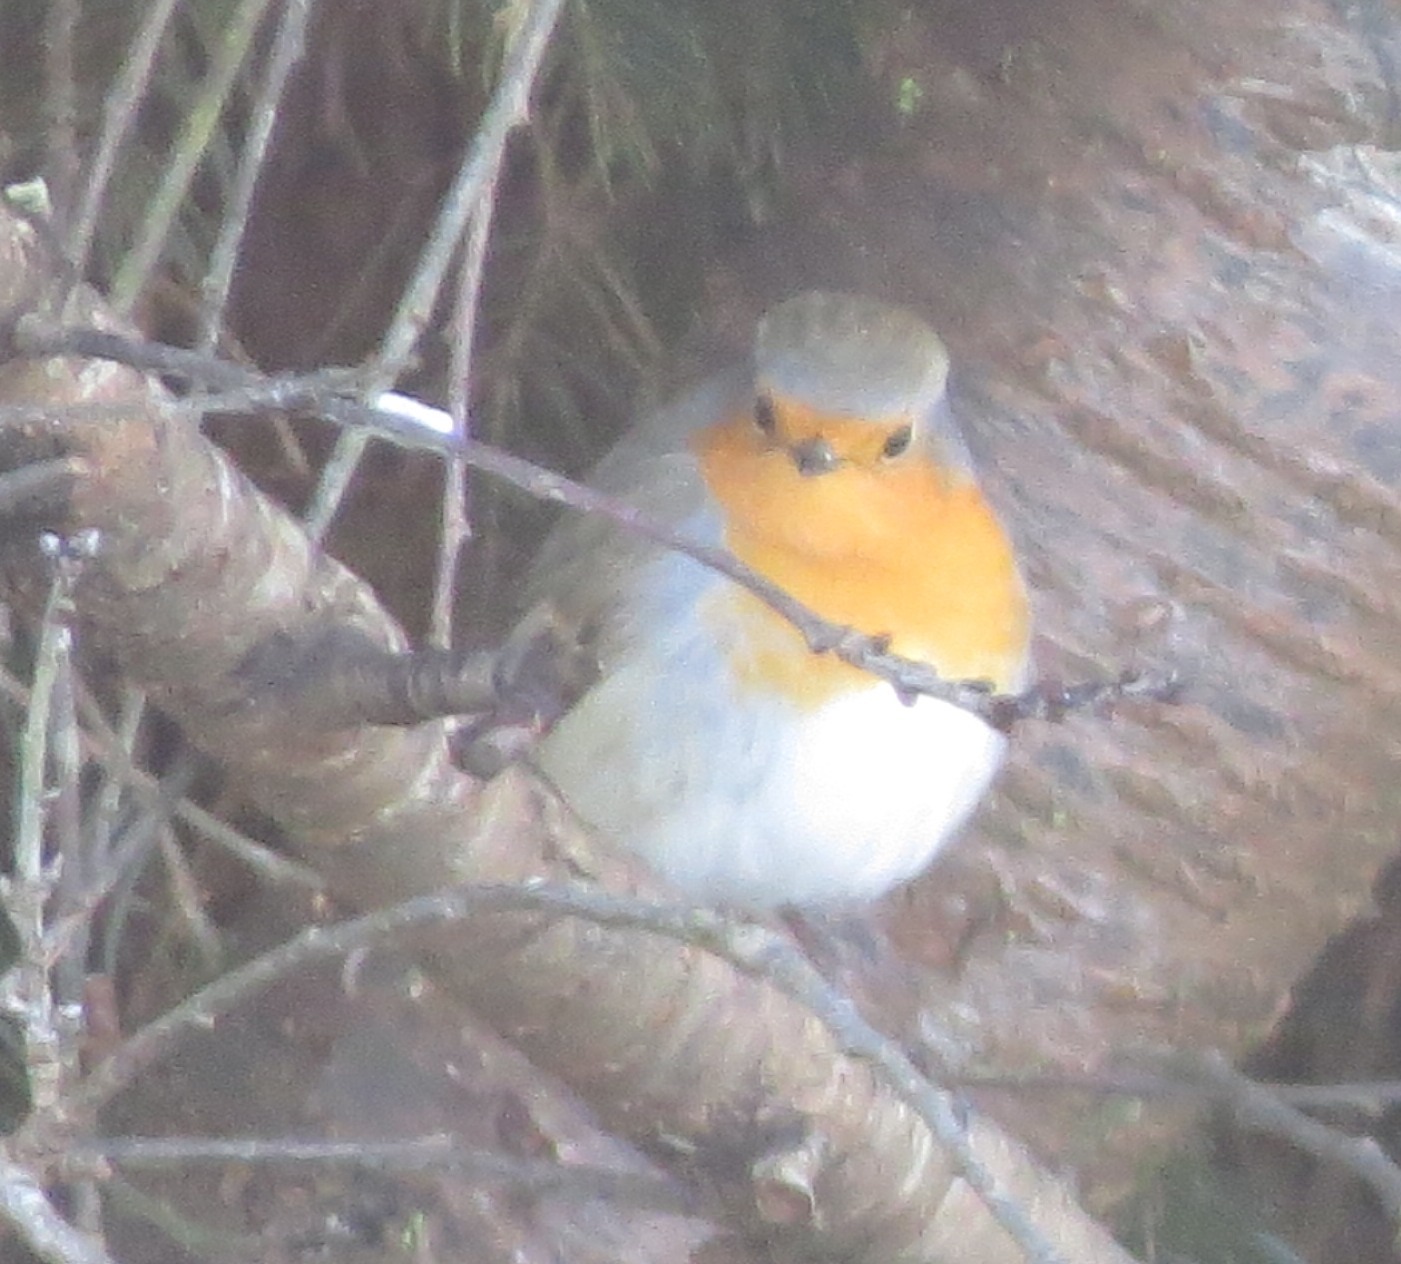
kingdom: Animalia
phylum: Chordata
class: Aves
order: Passeriformes
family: Muscicapidae
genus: Erithacus
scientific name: Erithacus rubecula
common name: European robin
